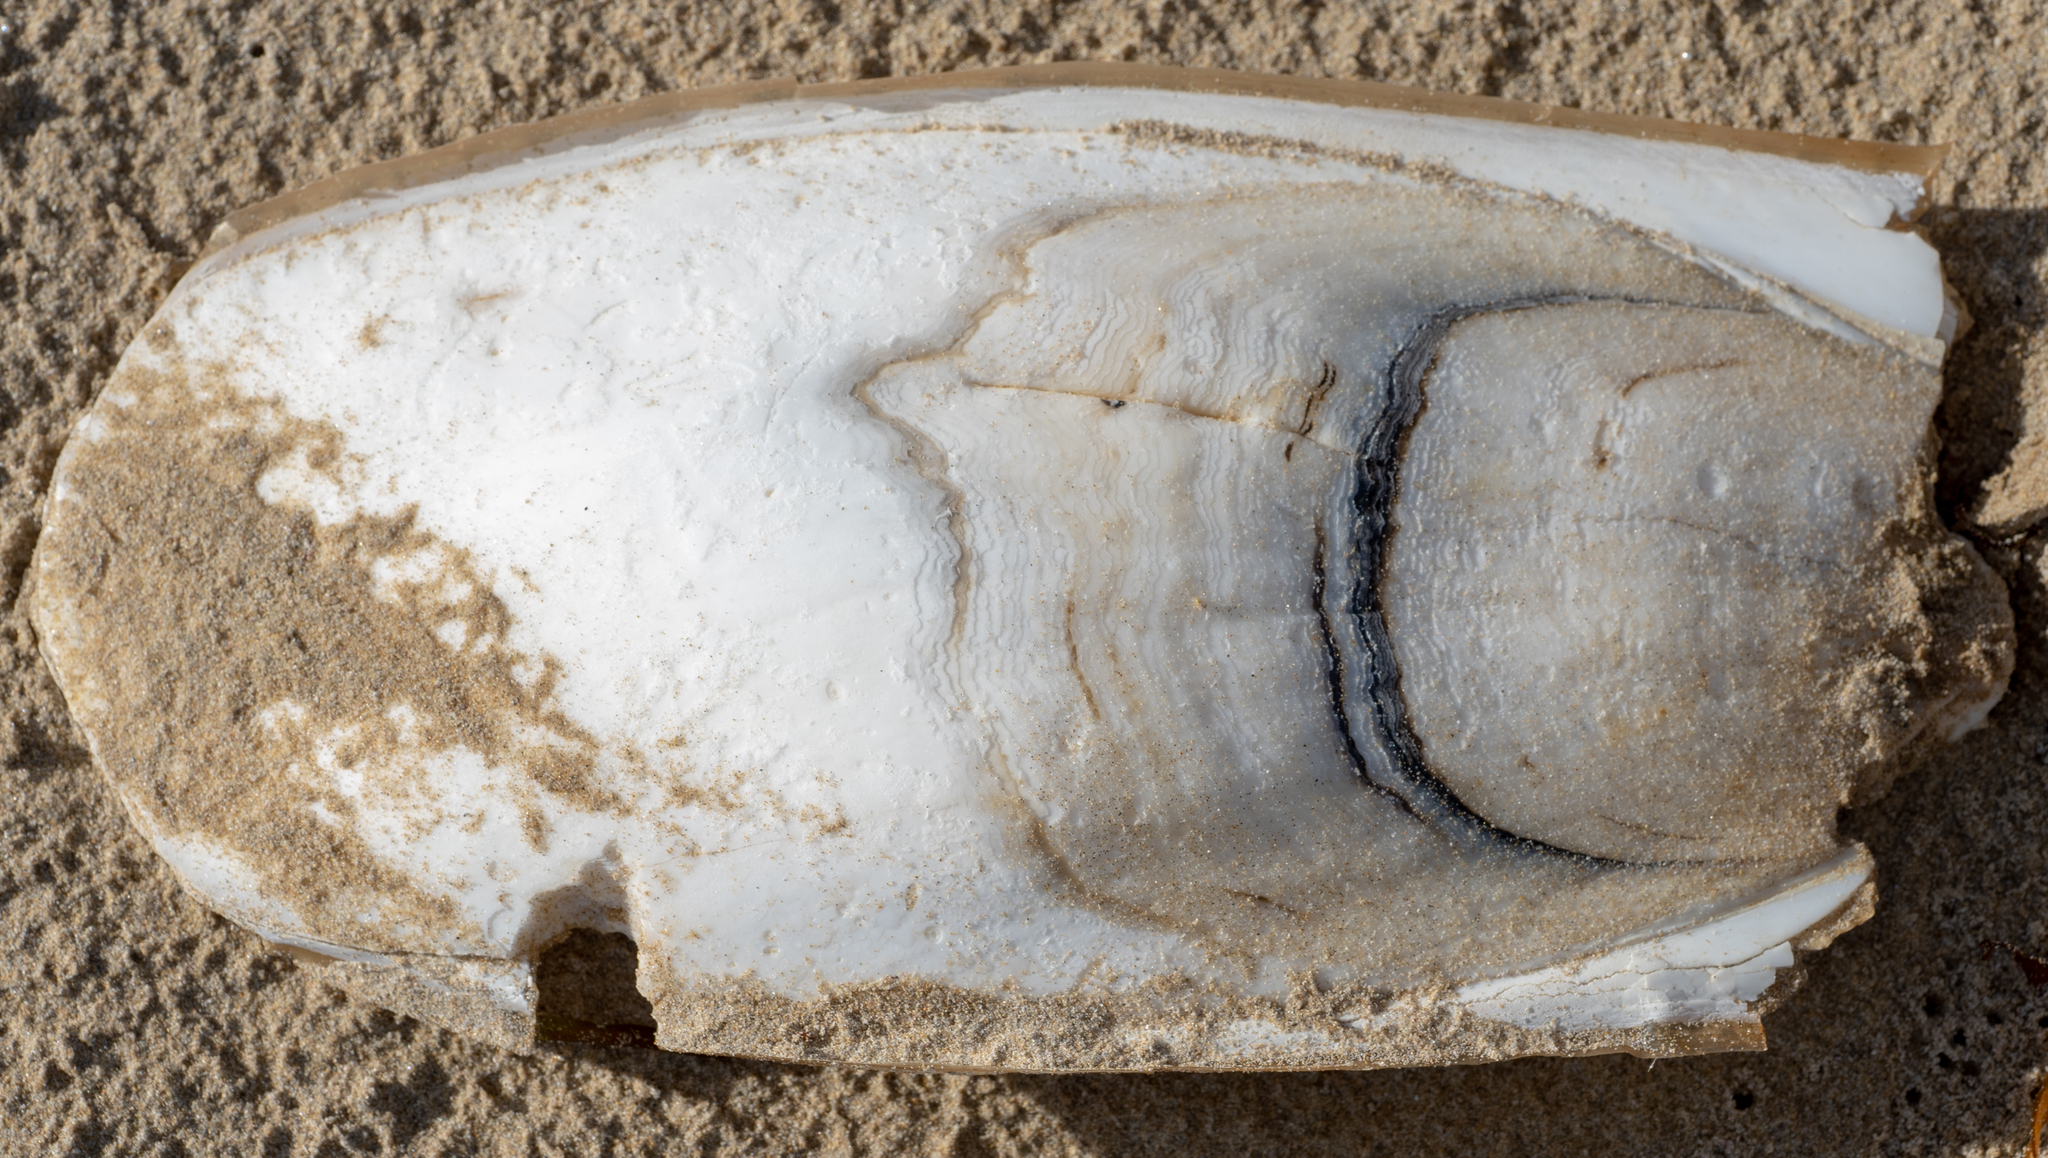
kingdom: Animalia
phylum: Mollusca
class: Cephalopoda
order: Sepiida
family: Sepiidae
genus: Ascarosepion
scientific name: Ascarosepion apama
